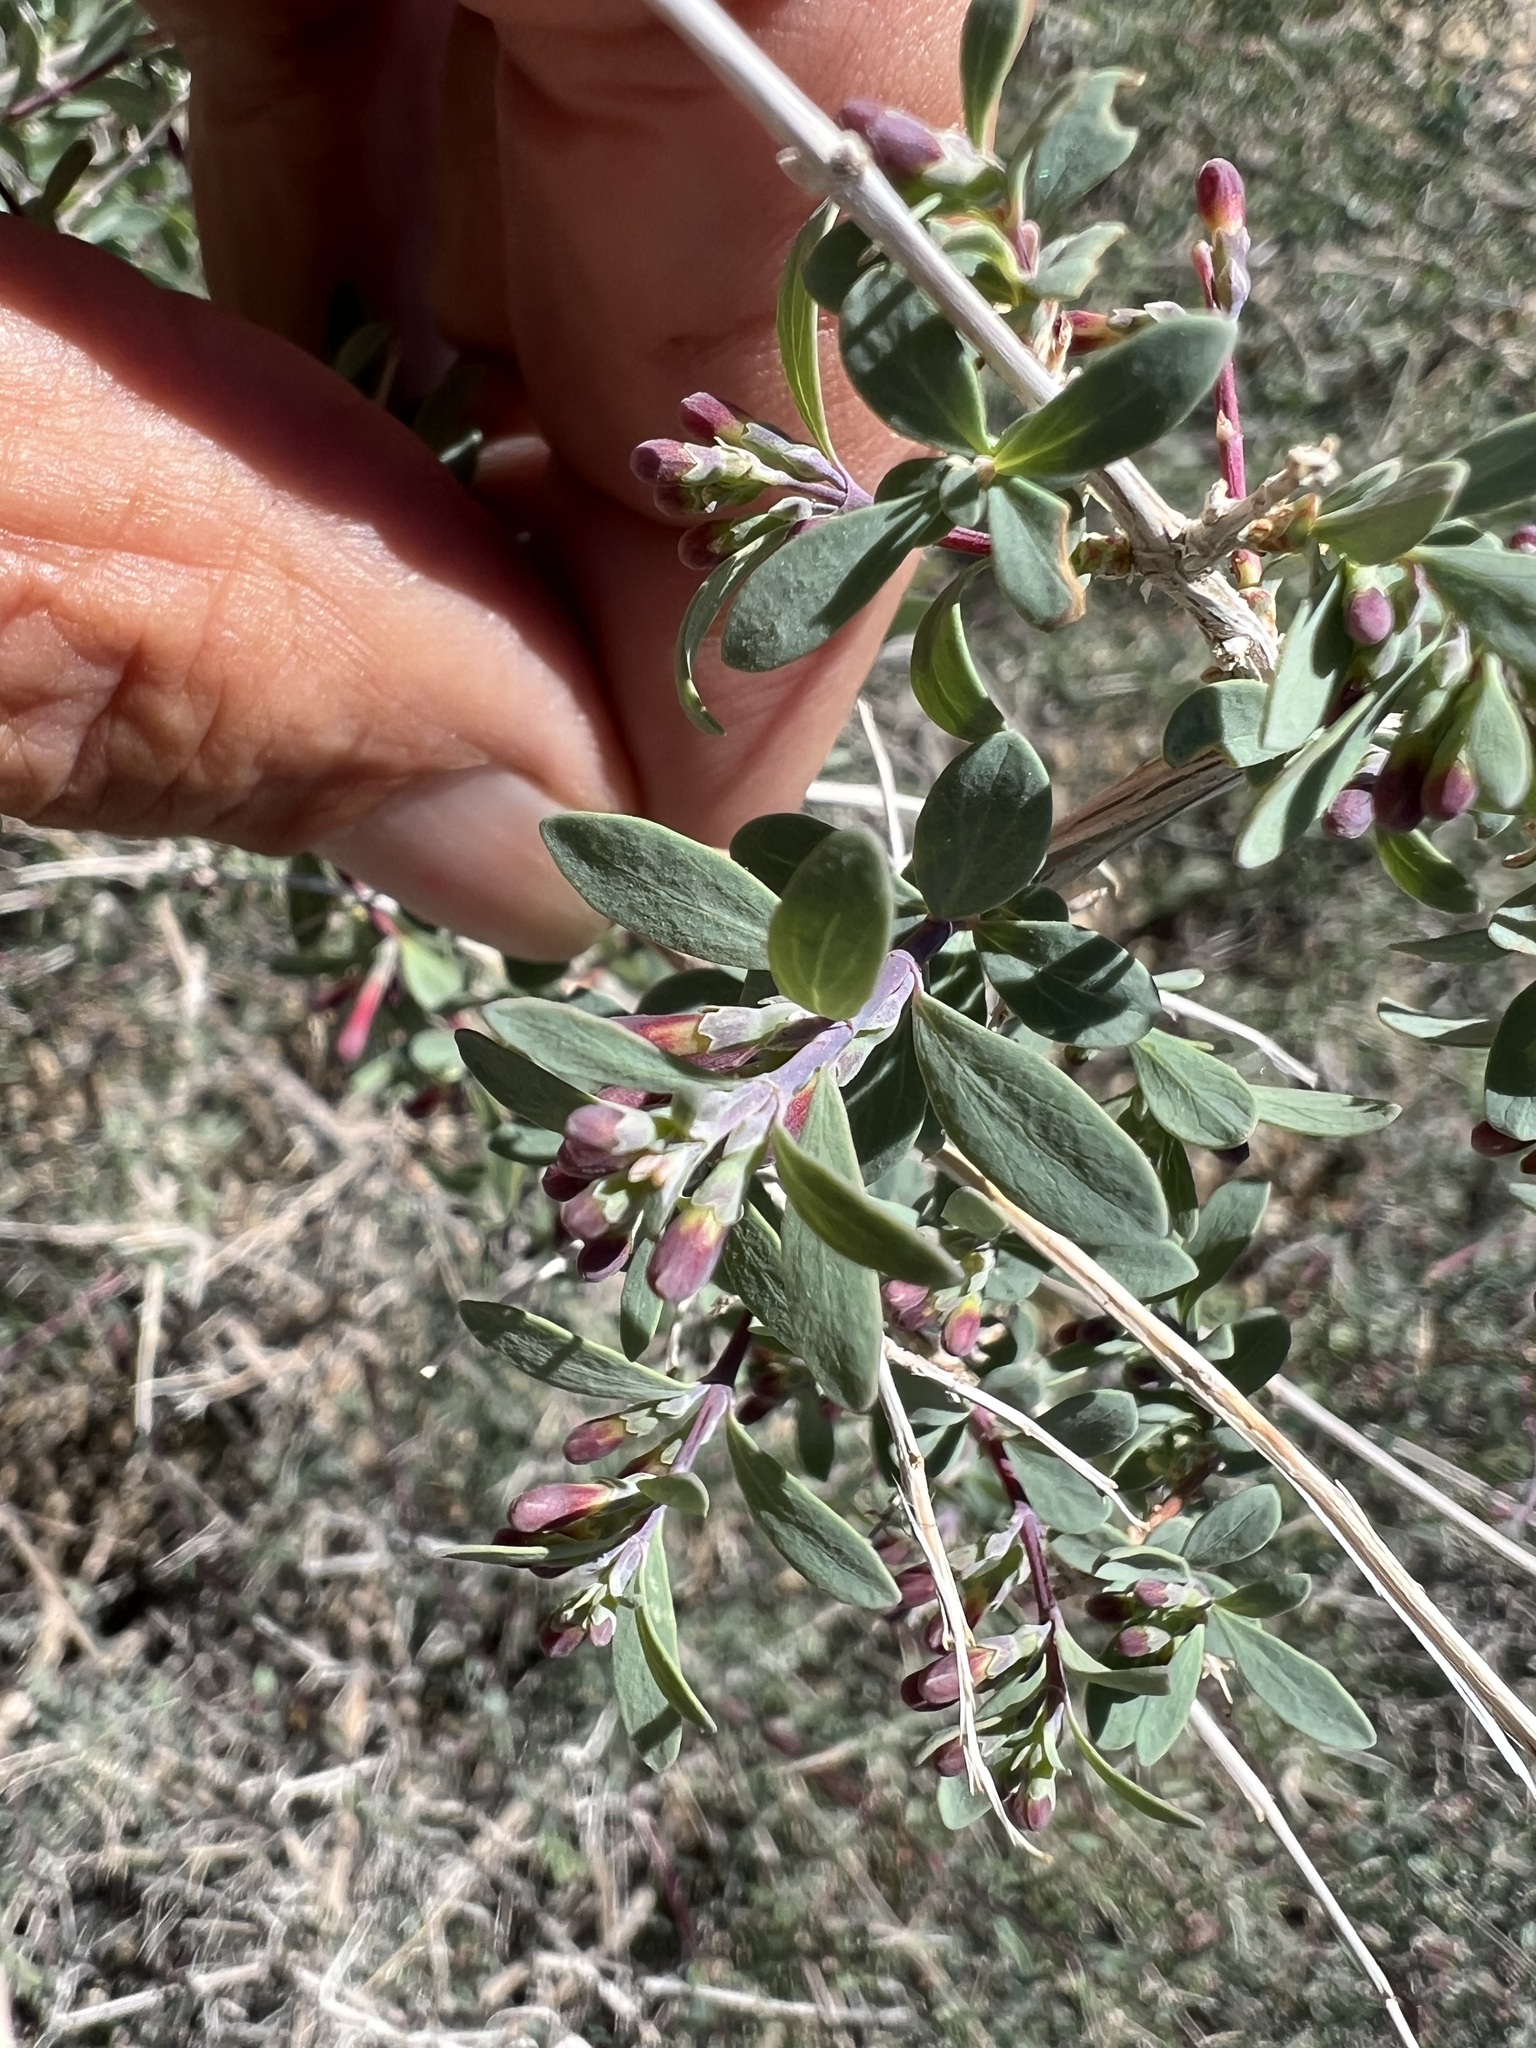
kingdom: Plantae
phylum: Tracheophyta
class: Magnoliopsida
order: Dipsacales
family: Caprifoliaceae
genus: Symphoricarpos
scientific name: Symphoricarpos longiflorus
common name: Fragrant snowberry
